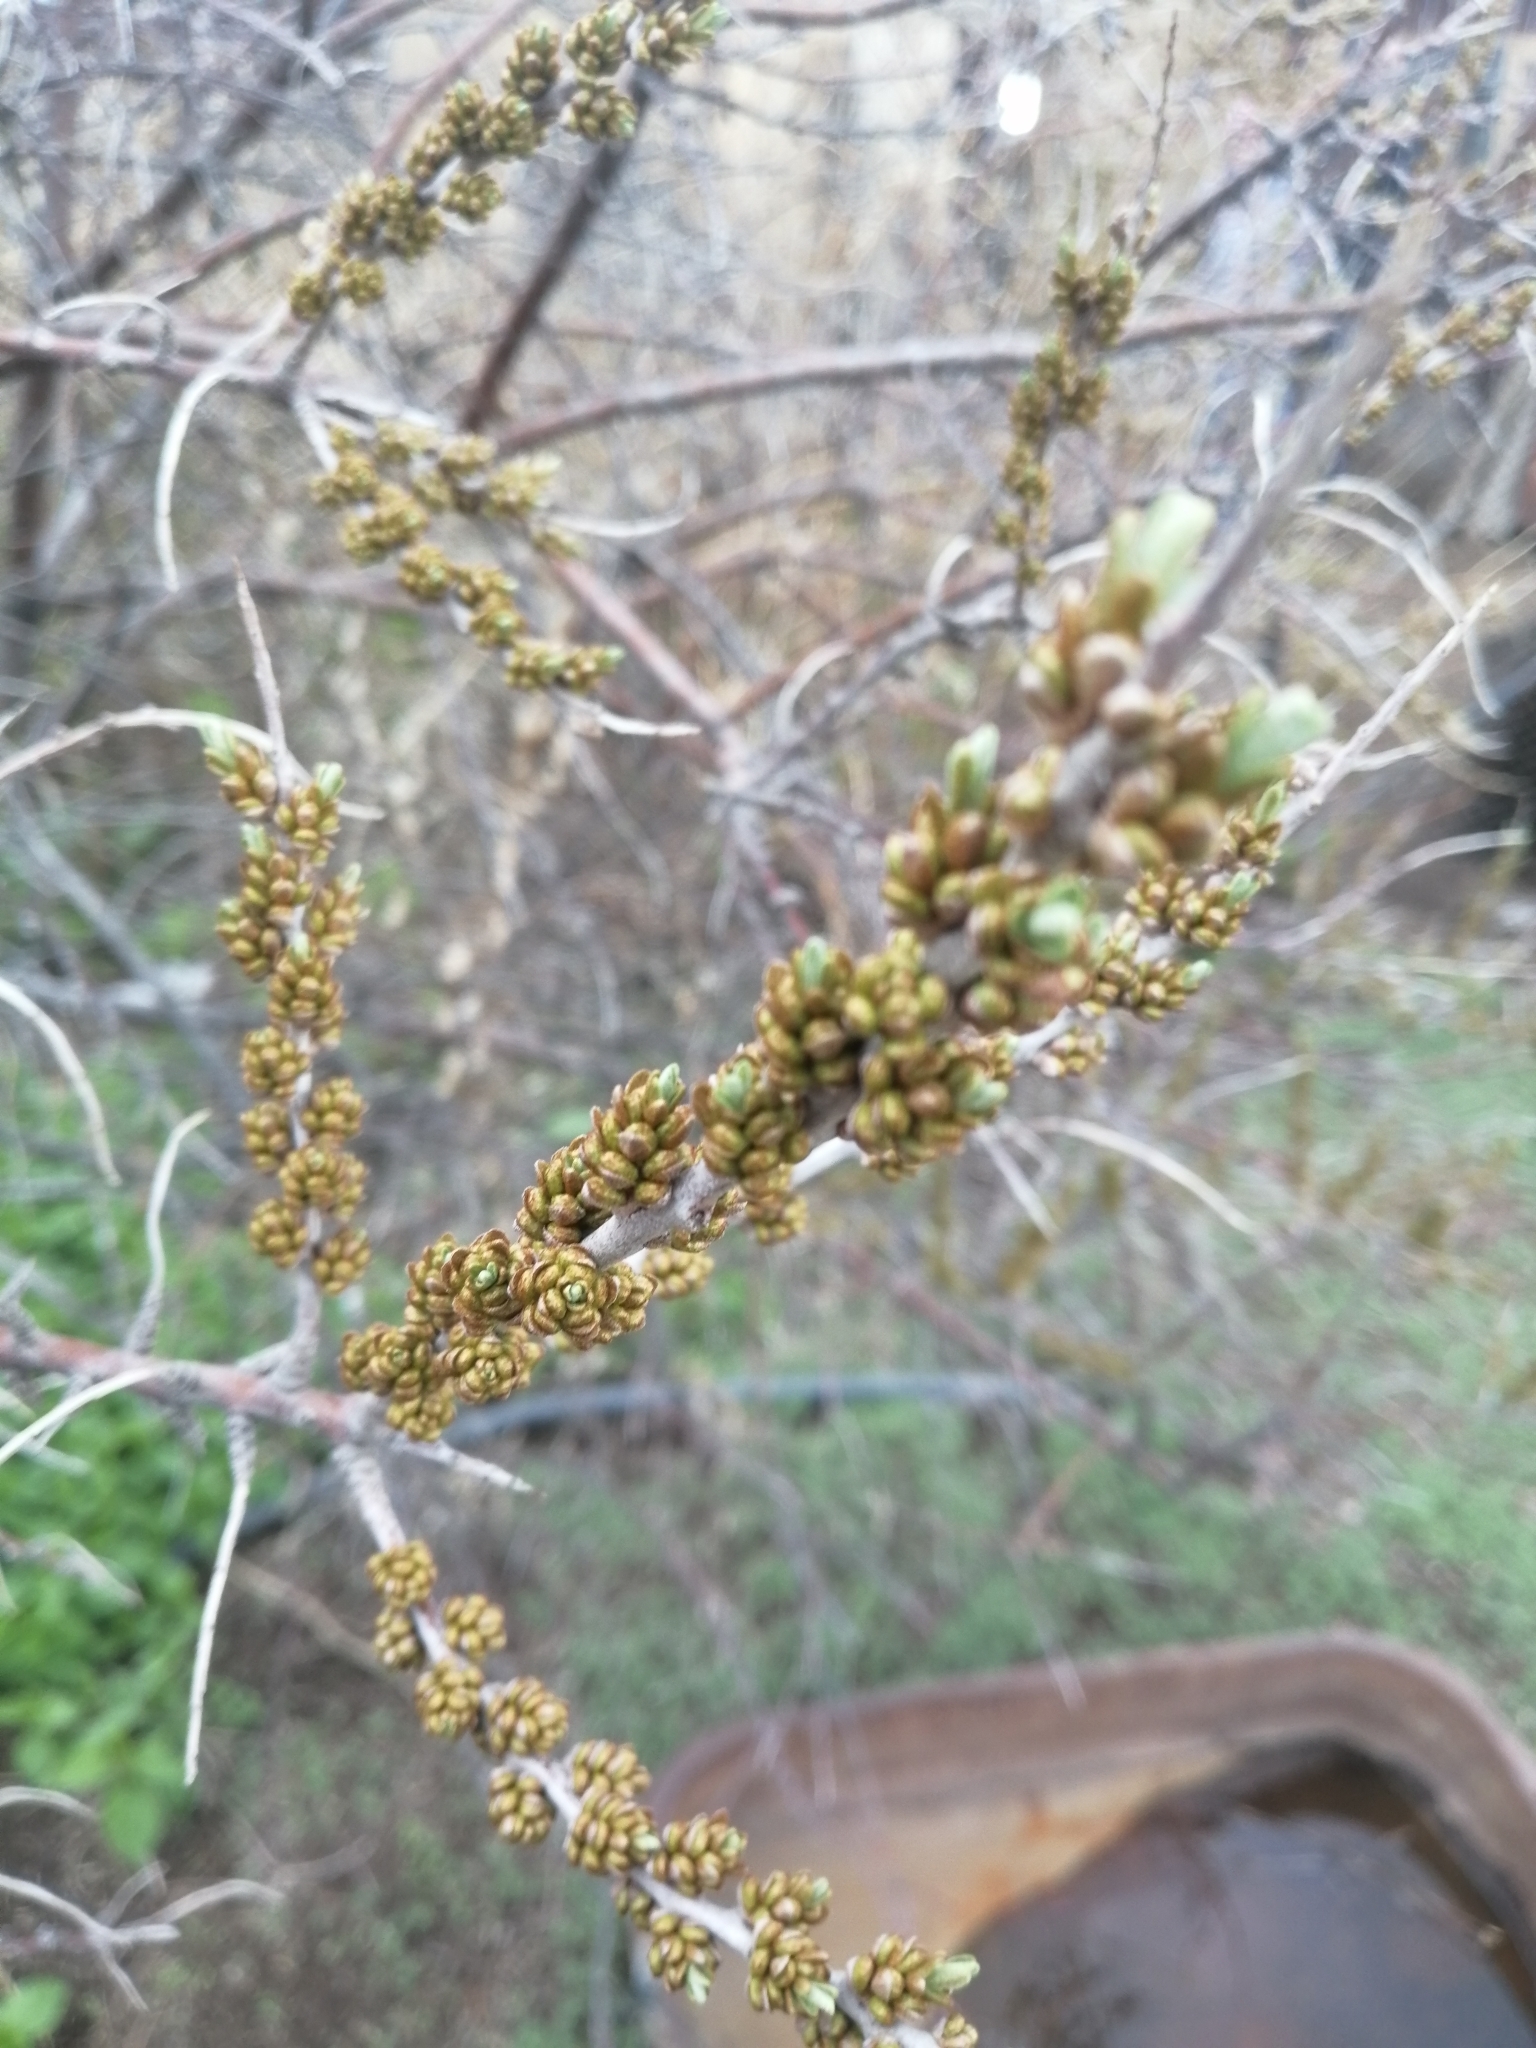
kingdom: Plantae
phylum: Tracheophyta
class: Magnoliopsida
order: Rosales
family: Elaeagnaceae
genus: Hippophae
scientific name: Hippophae rhamnoides
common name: Sea-buckthorn
